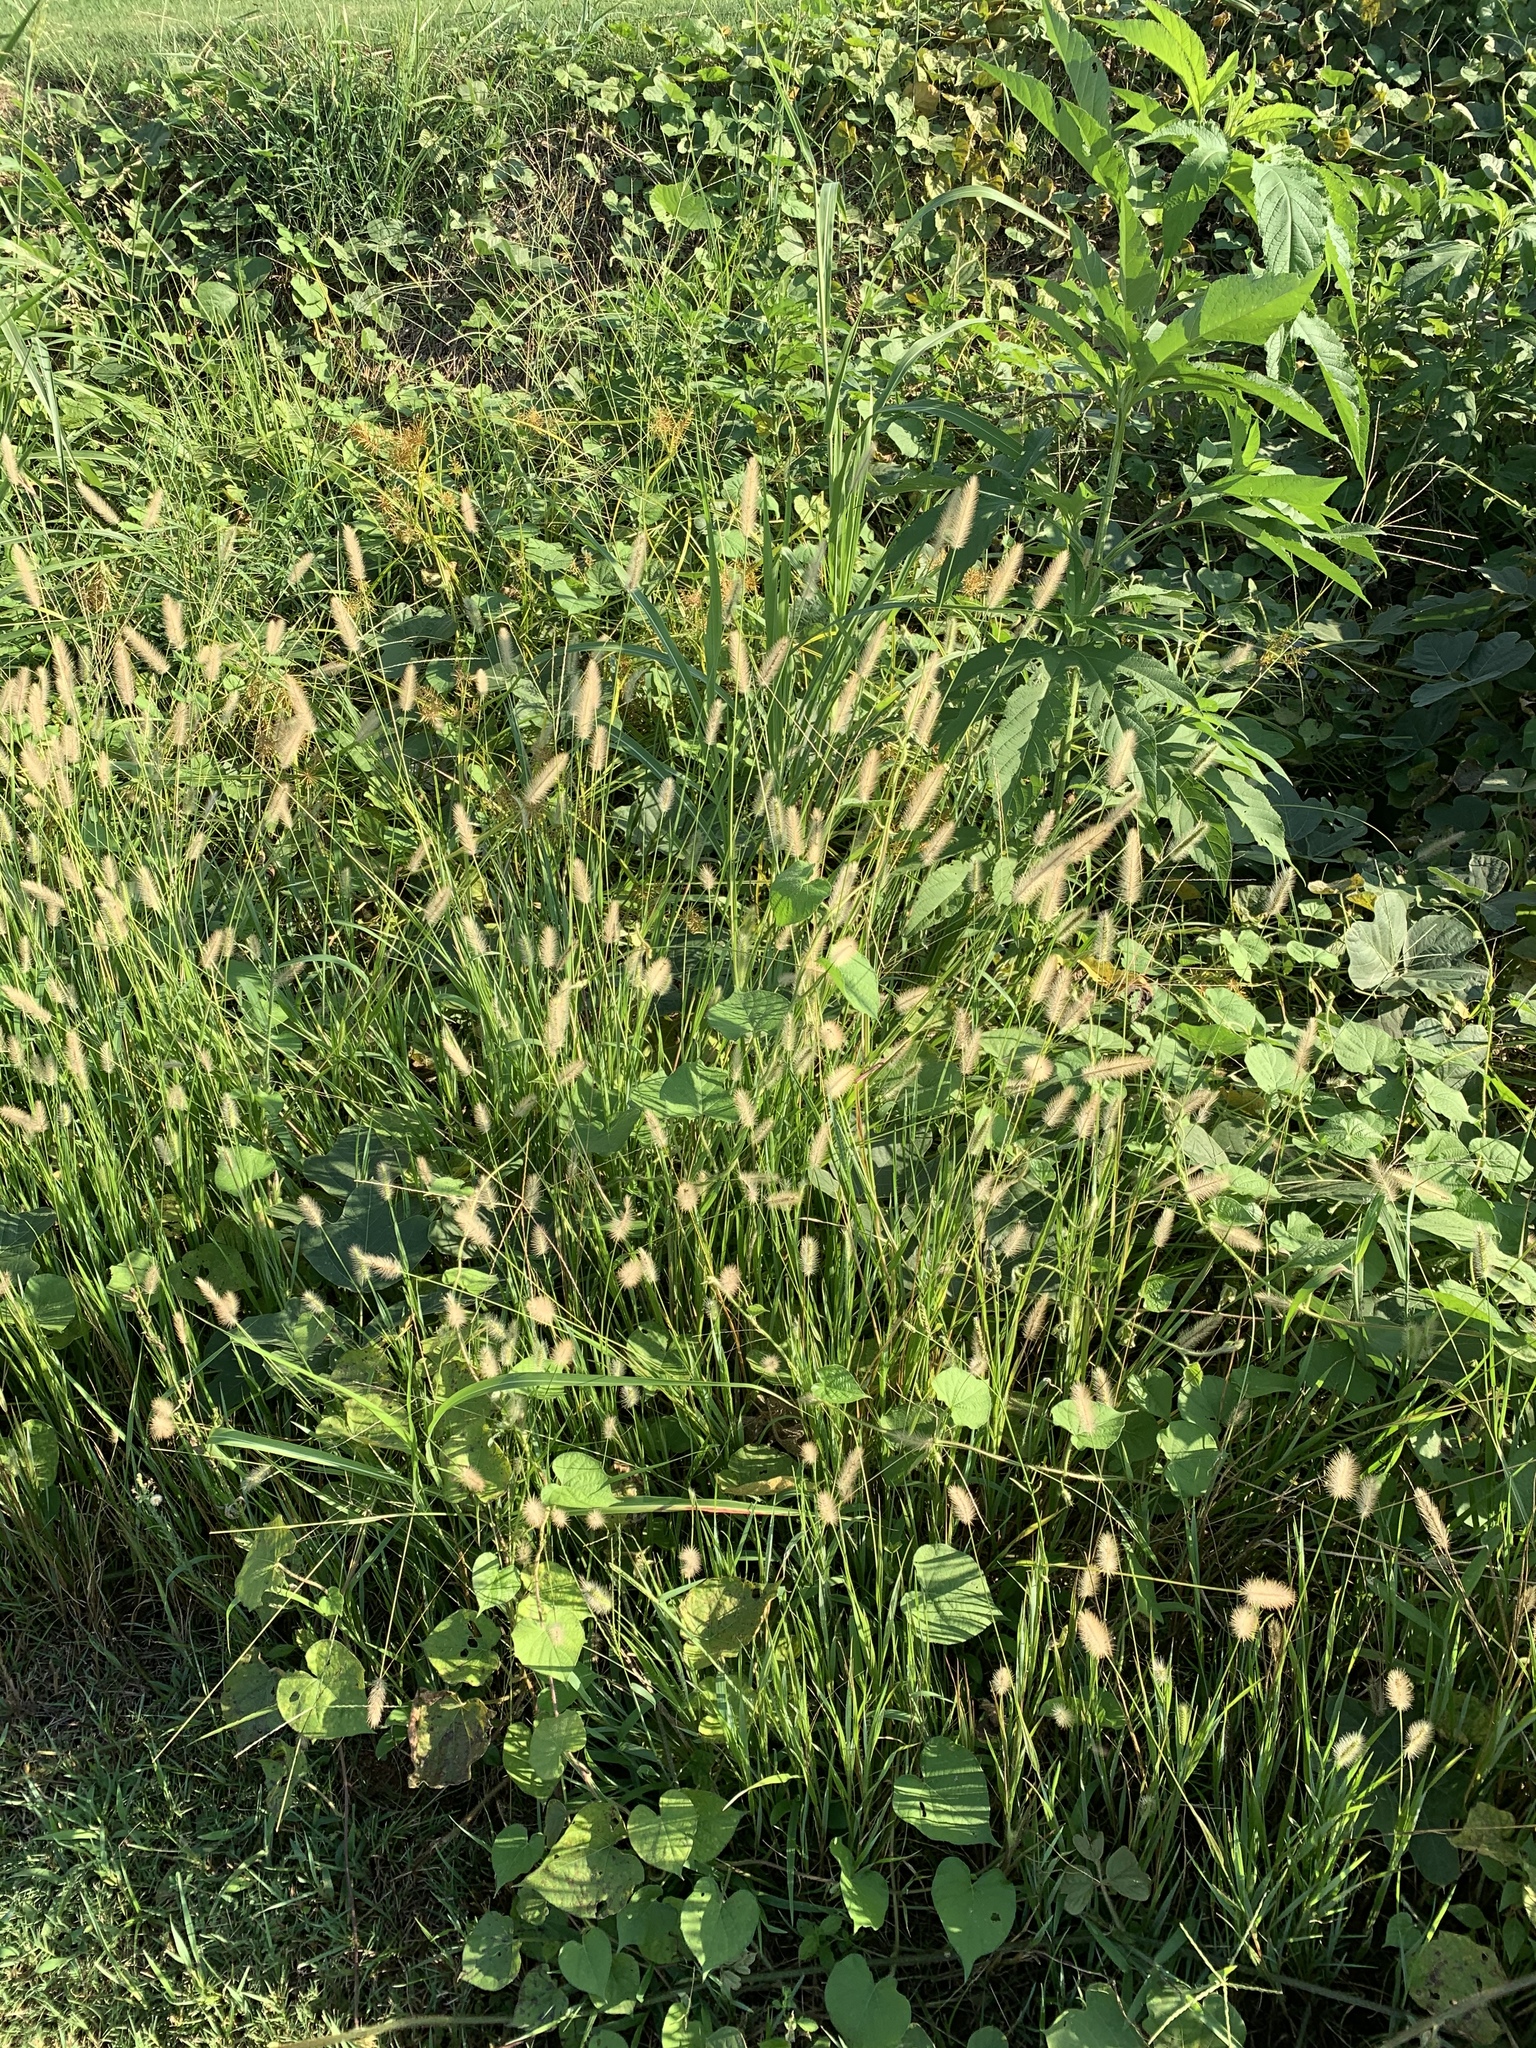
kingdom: Plantae
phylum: Tracheophyta
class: Liliopsida
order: Poales
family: Poaceae
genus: Setaria
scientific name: Setaria parviflora
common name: Knotroot bristle-grass
